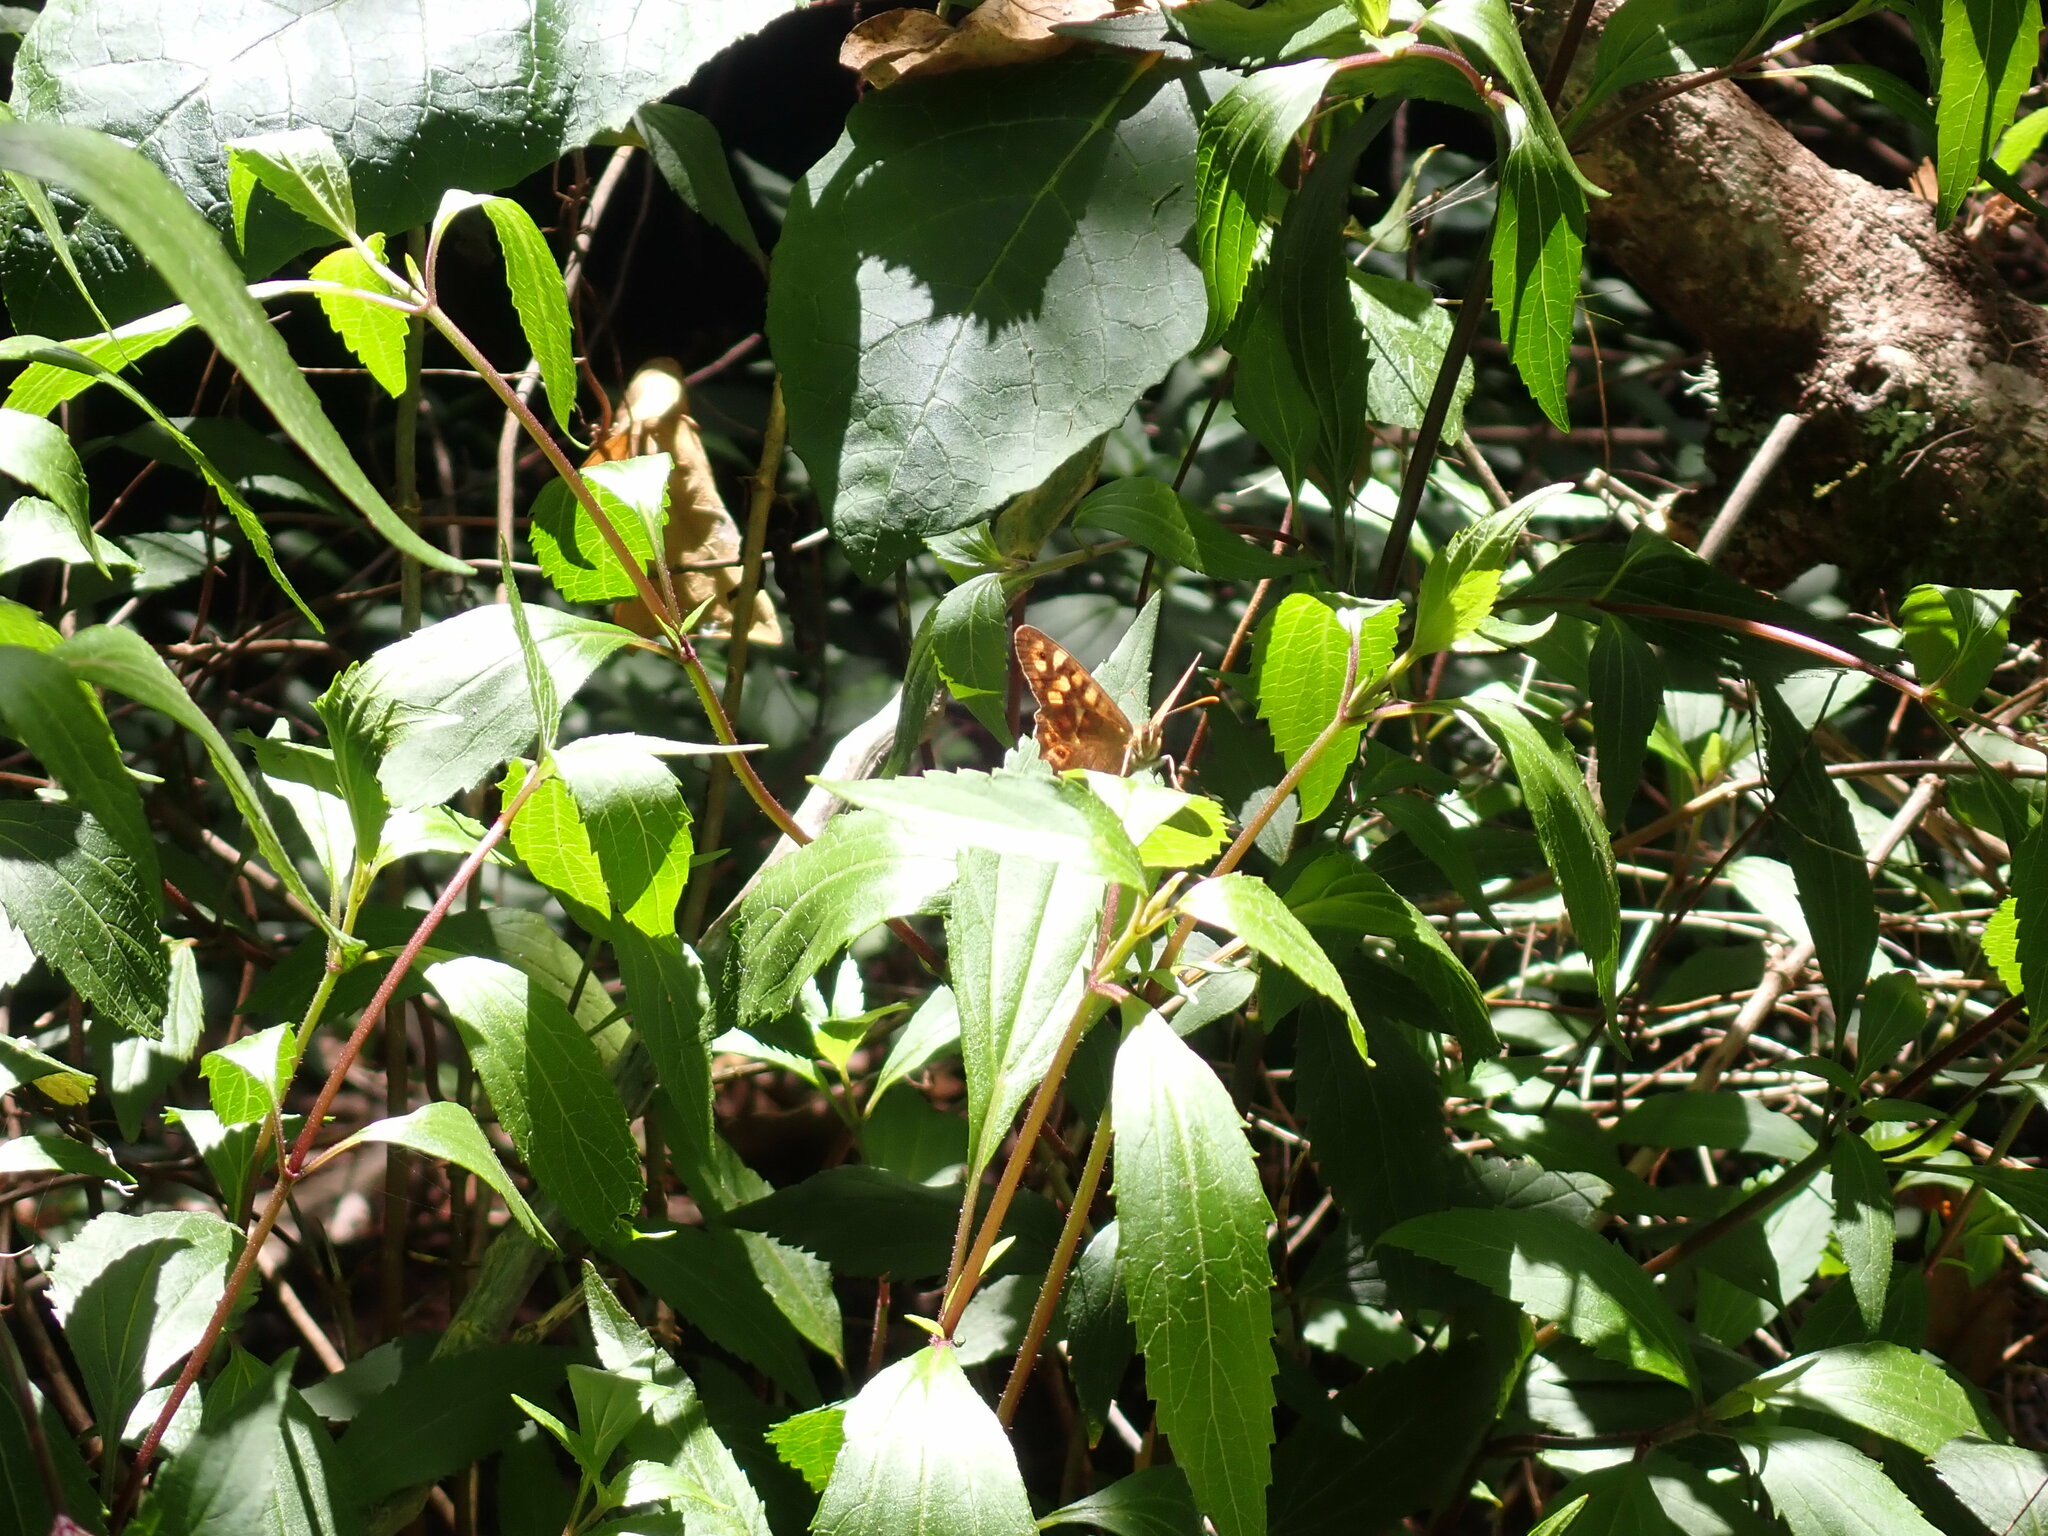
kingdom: Animalia
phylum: Arthropoda
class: Insecta
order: Lepidoptera
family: Nymphalidae
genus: Pararge
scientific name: Pararge aegeria
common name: Speckled wood
